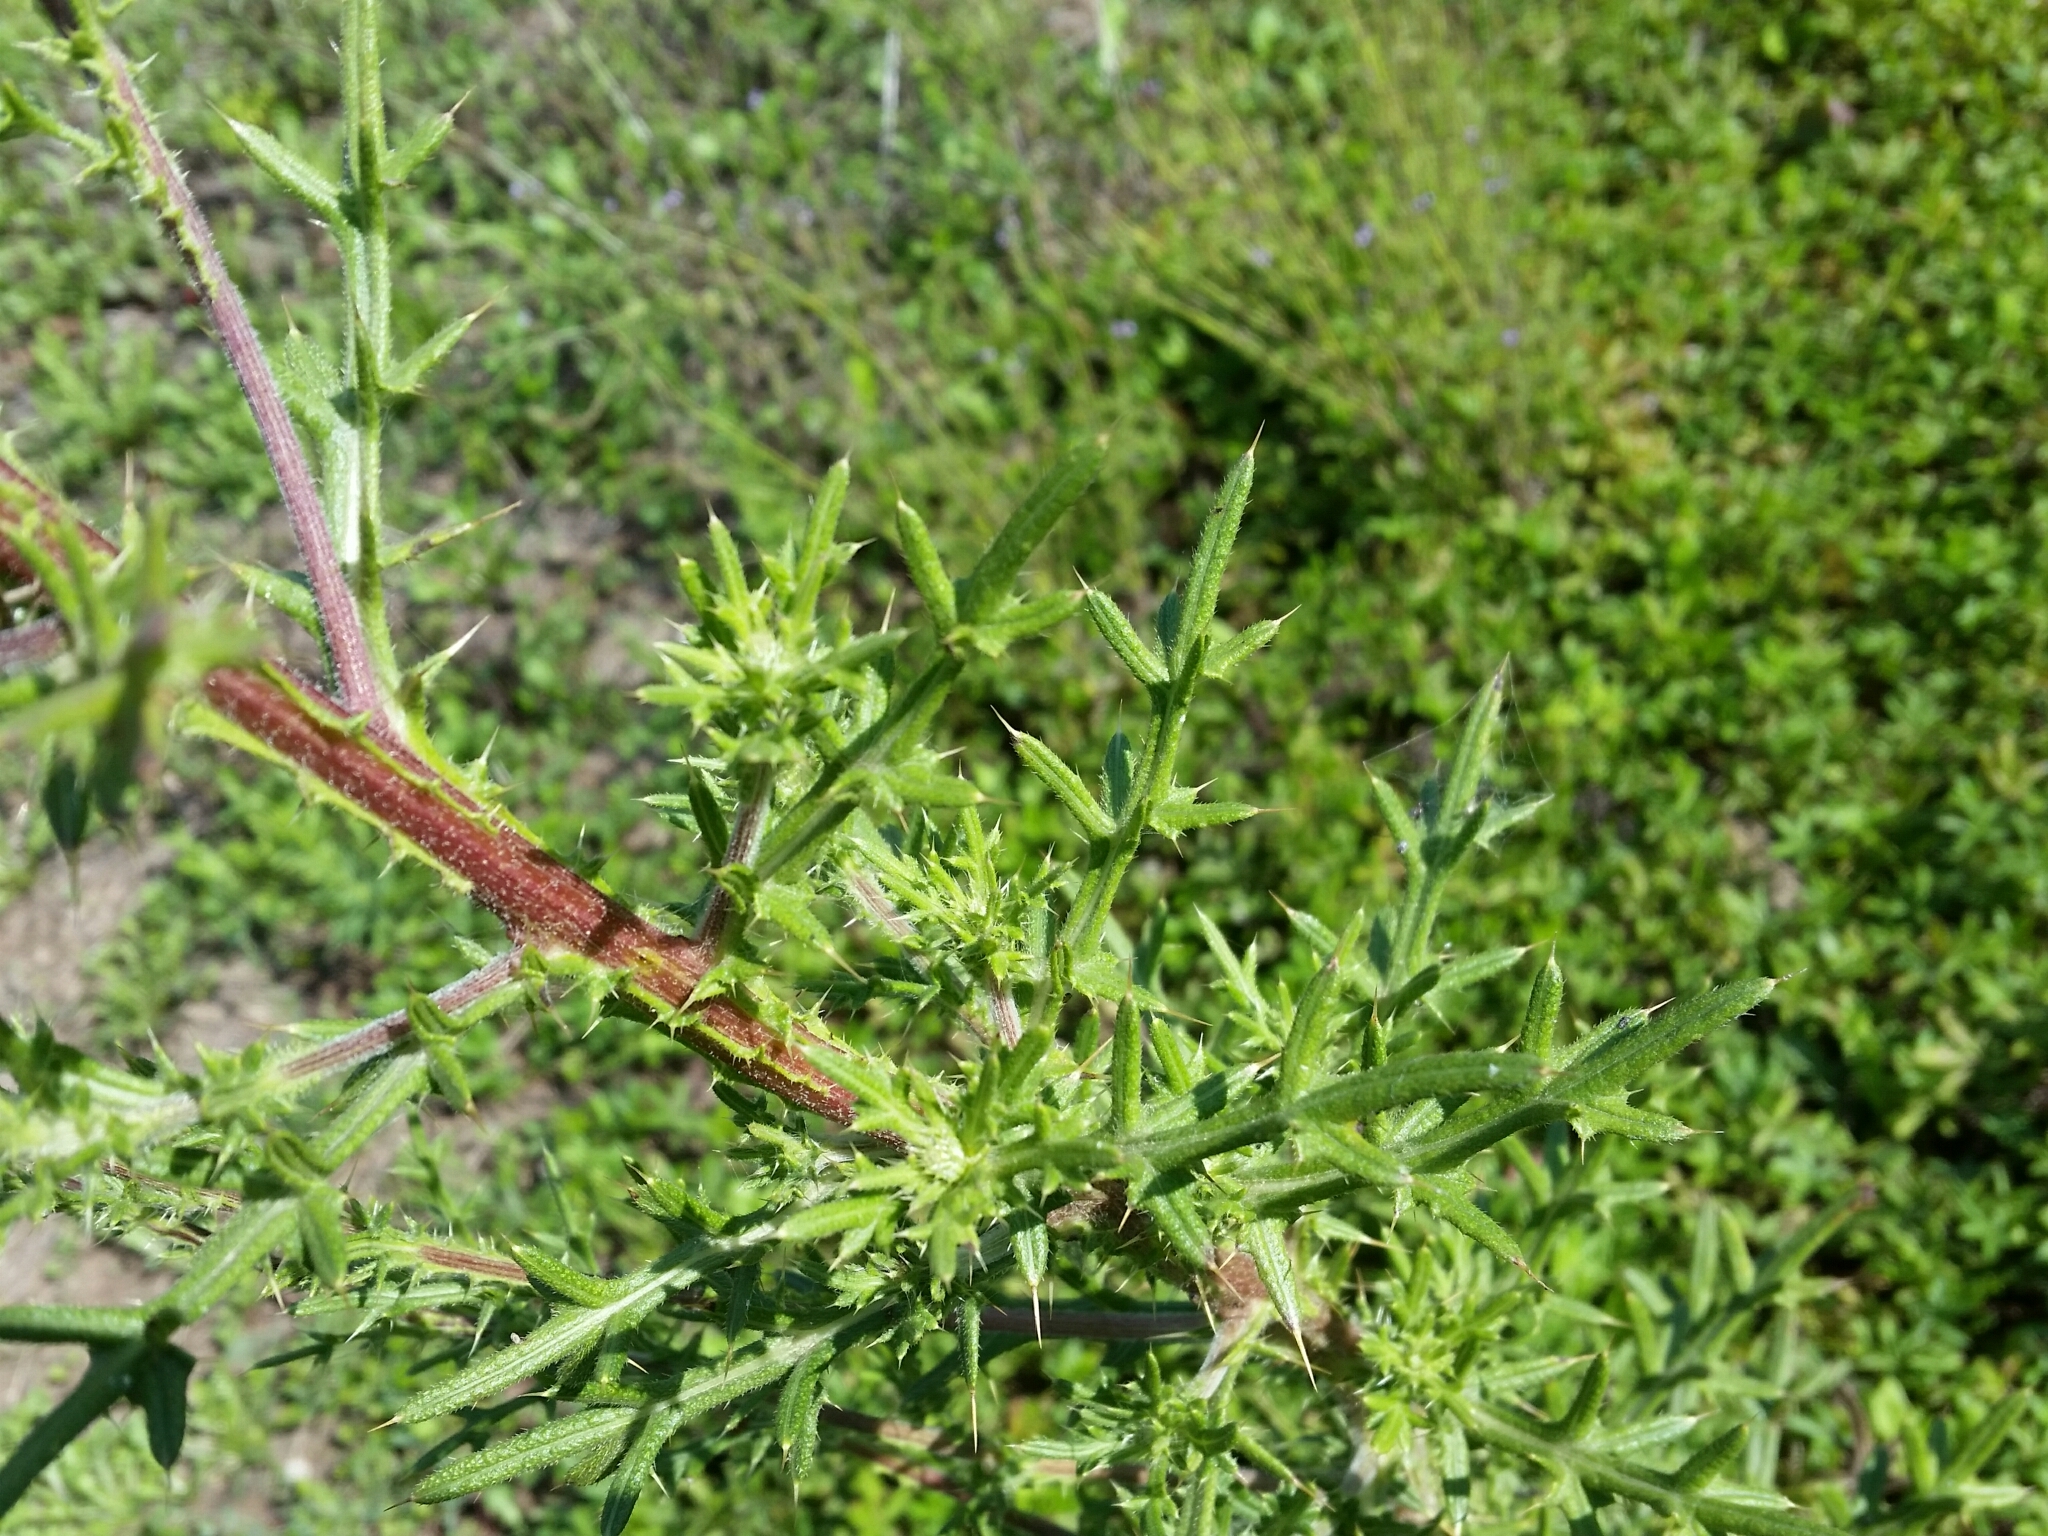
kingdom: Plantae
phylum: Tracheophyta
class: Magnoliopsida
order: Asterales
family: Asteraceae
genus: Cirsium
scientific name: Cirsium vulgare
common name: Bull thistle
